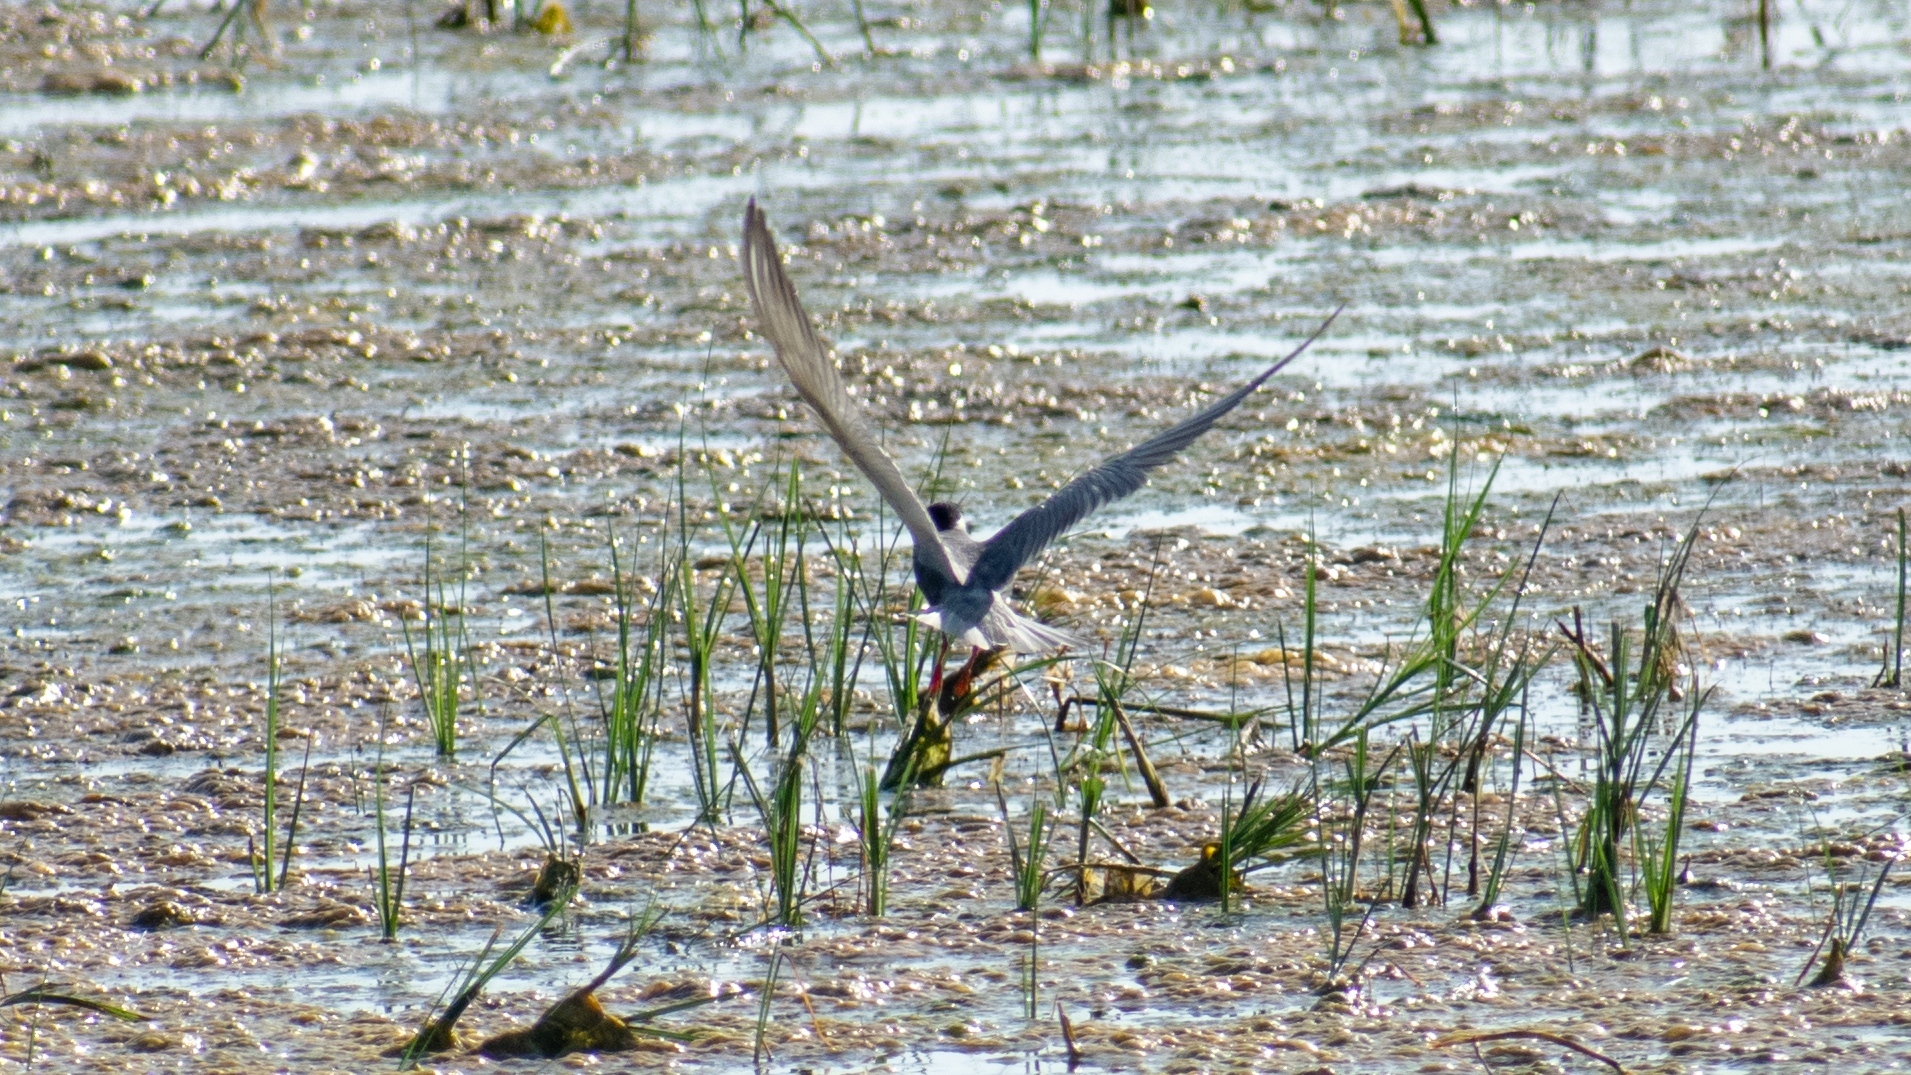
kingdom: Animalia
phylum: Chordata
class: Aves
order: Charadriiformes
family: Laridae
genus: Chlidonias
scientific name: Chlidonias hybrida
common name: Whiskered tern
